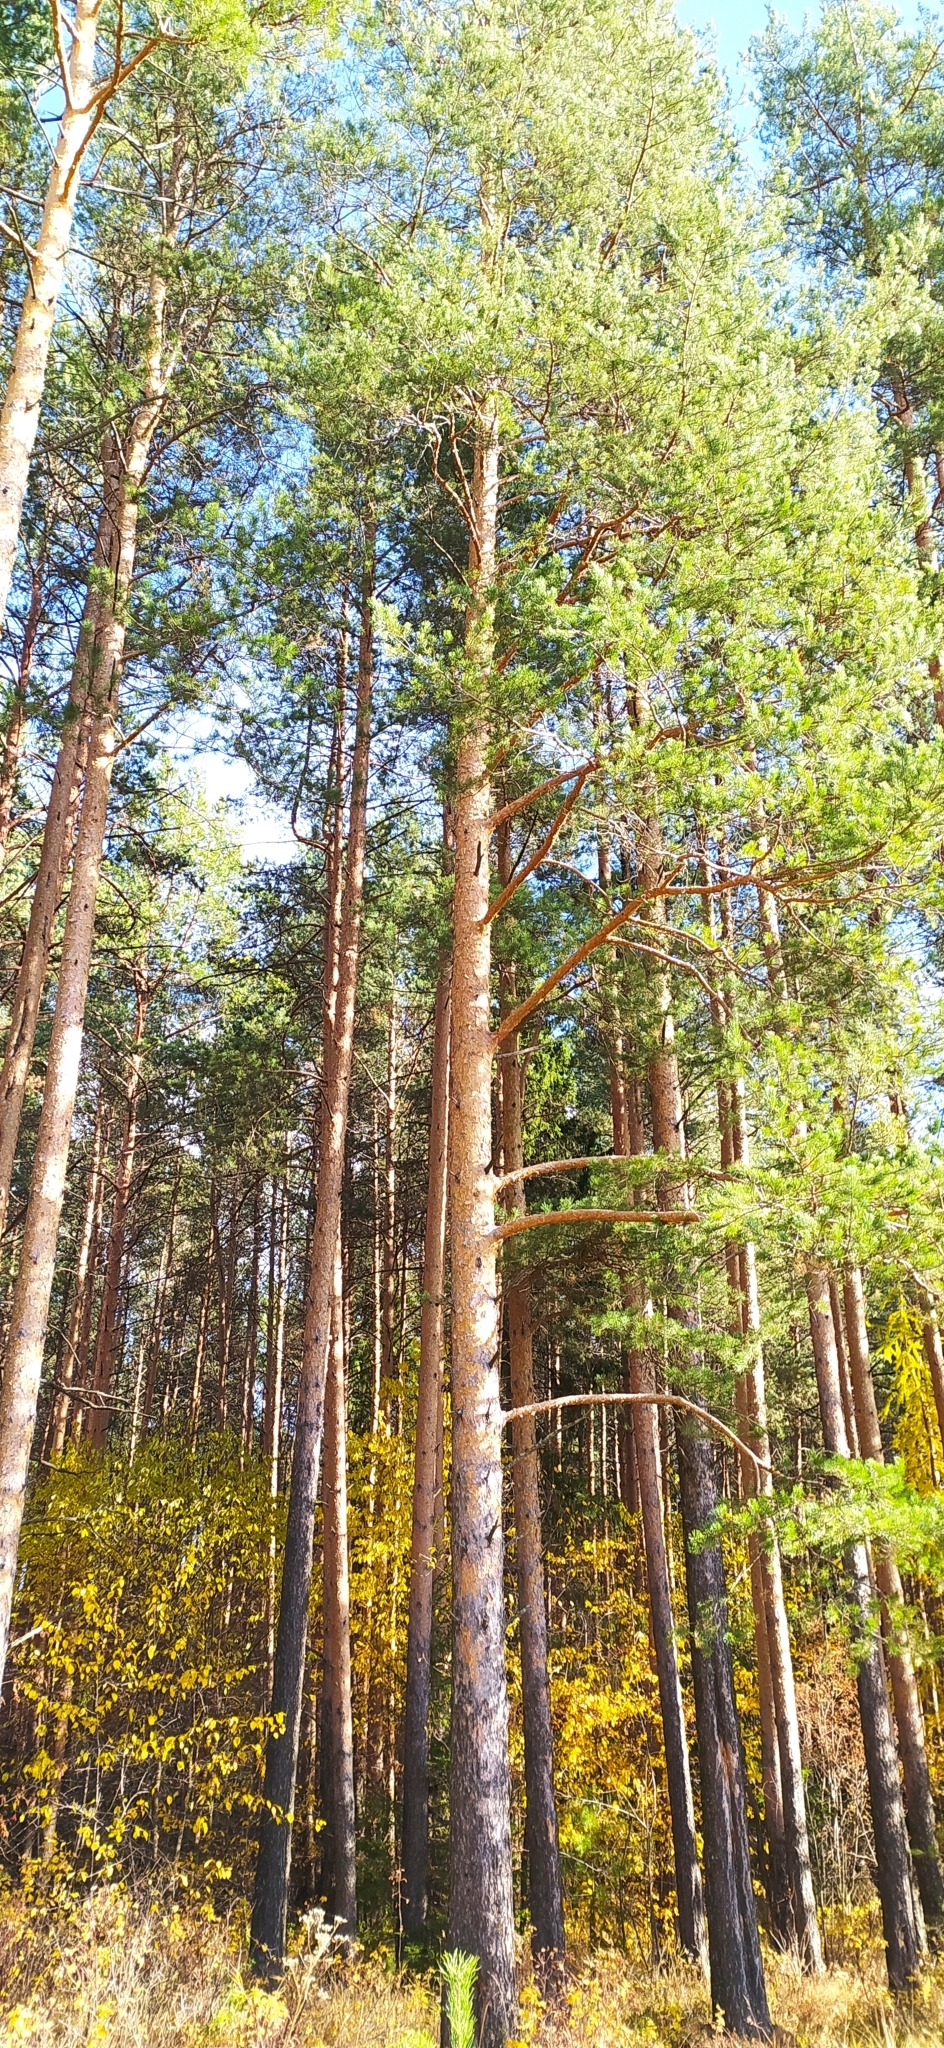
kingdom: Plantae
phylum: Tracheophyta
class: Pinopsida
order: Pinales
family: Pinaceae
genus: Pinus
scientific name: Pinus sylvestris
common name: Scots pine
